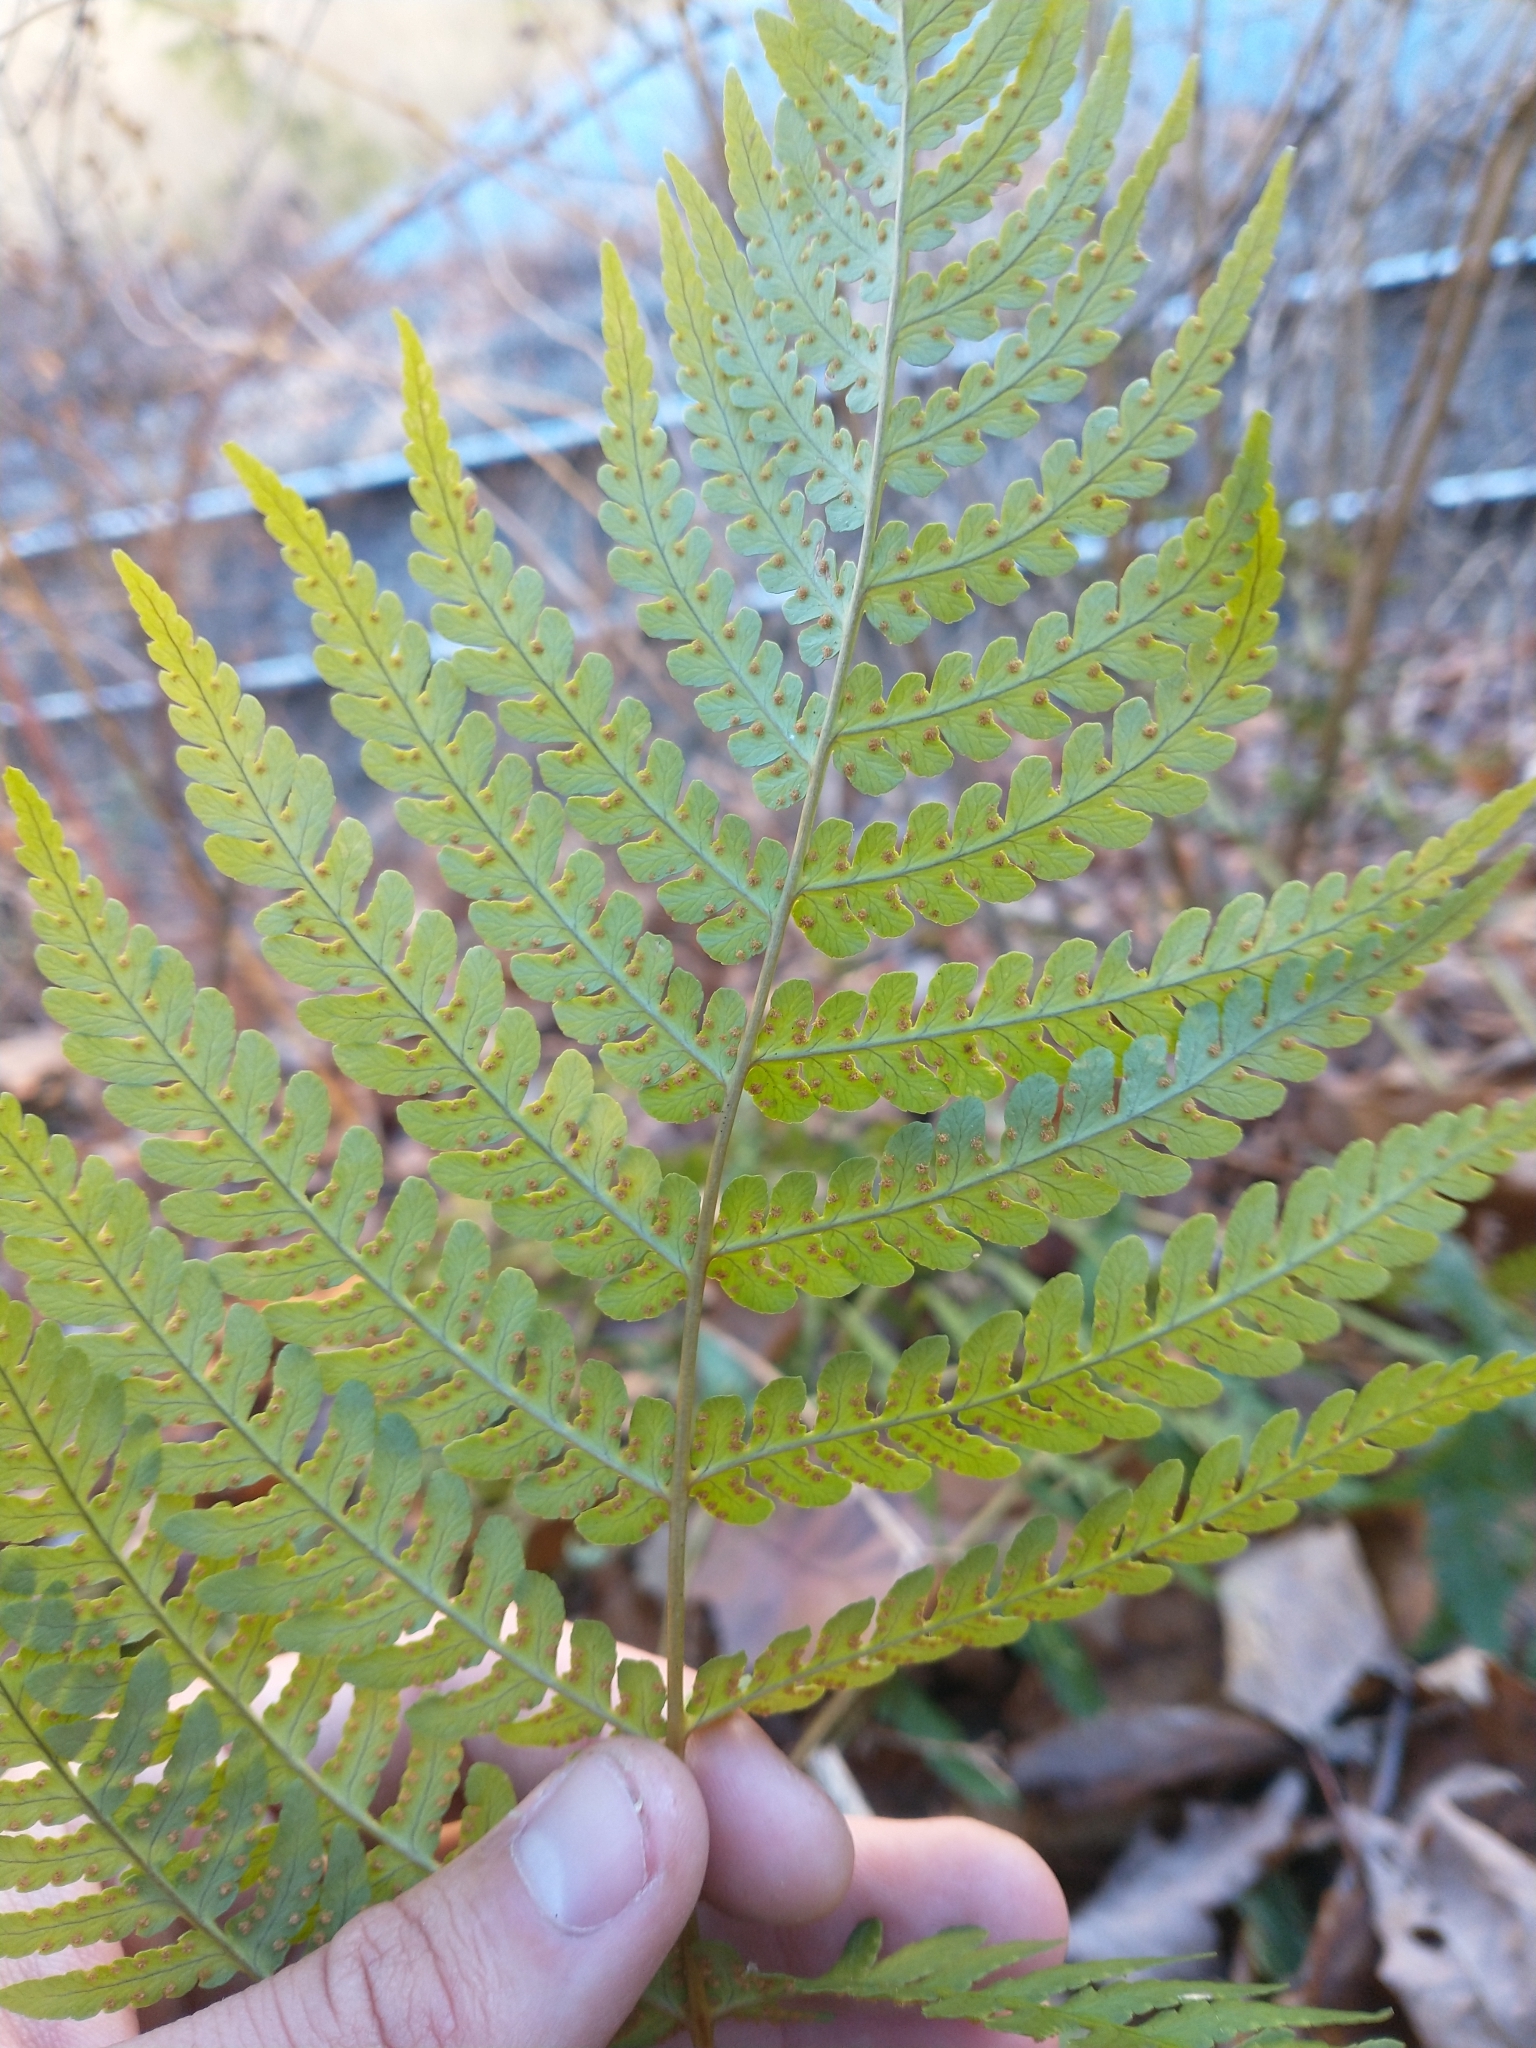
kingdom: Plantae
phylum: Tracheophyta
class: Polypodiopsida
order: Polypodiales
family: Dryopteridaceae
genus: Dryopteris
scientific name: Dryopteris marginalis
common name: Marginal wood fern
